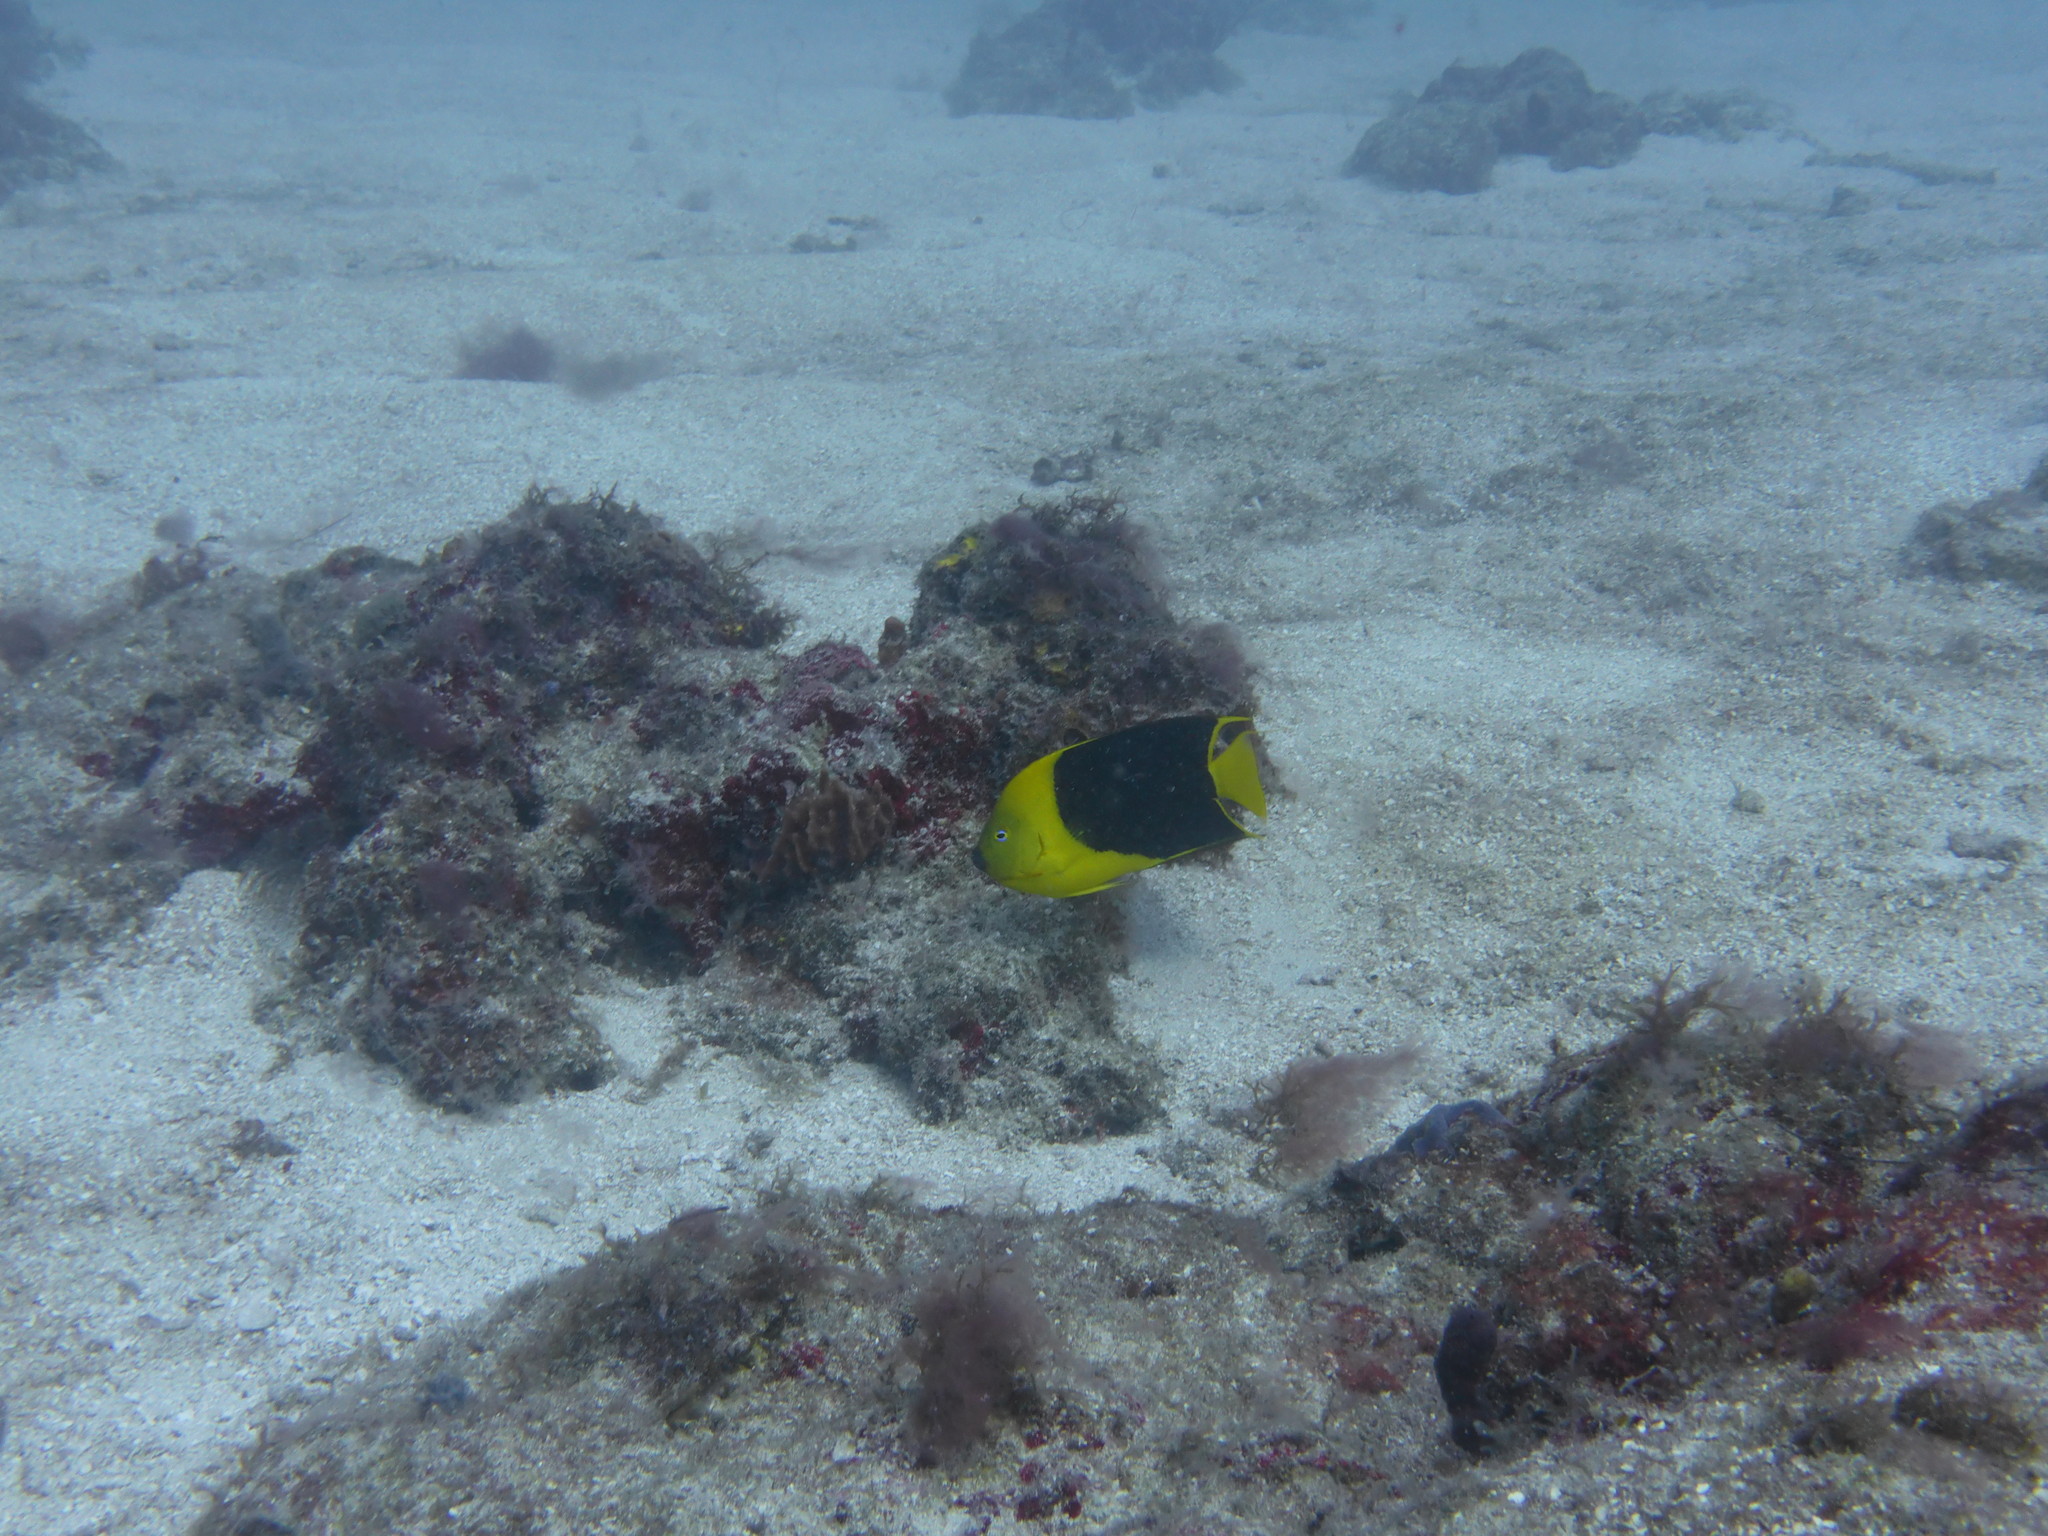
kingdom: Animalia
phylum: Chordata
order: Perciformes
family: Pomacanthidae
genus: Holacanthus
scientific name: Holacanthus tricolor
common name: Rock beauty
